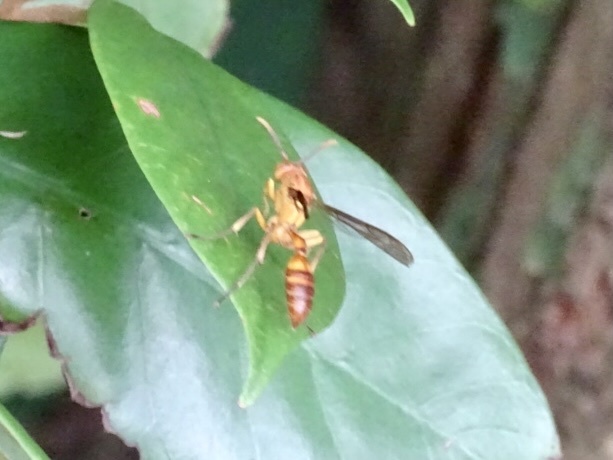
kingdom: Animalia
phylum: Arthropoda
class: Insecta
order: Hymenoptera
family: Vespidae
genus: Parapolybia
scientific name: Parapolybia indica
